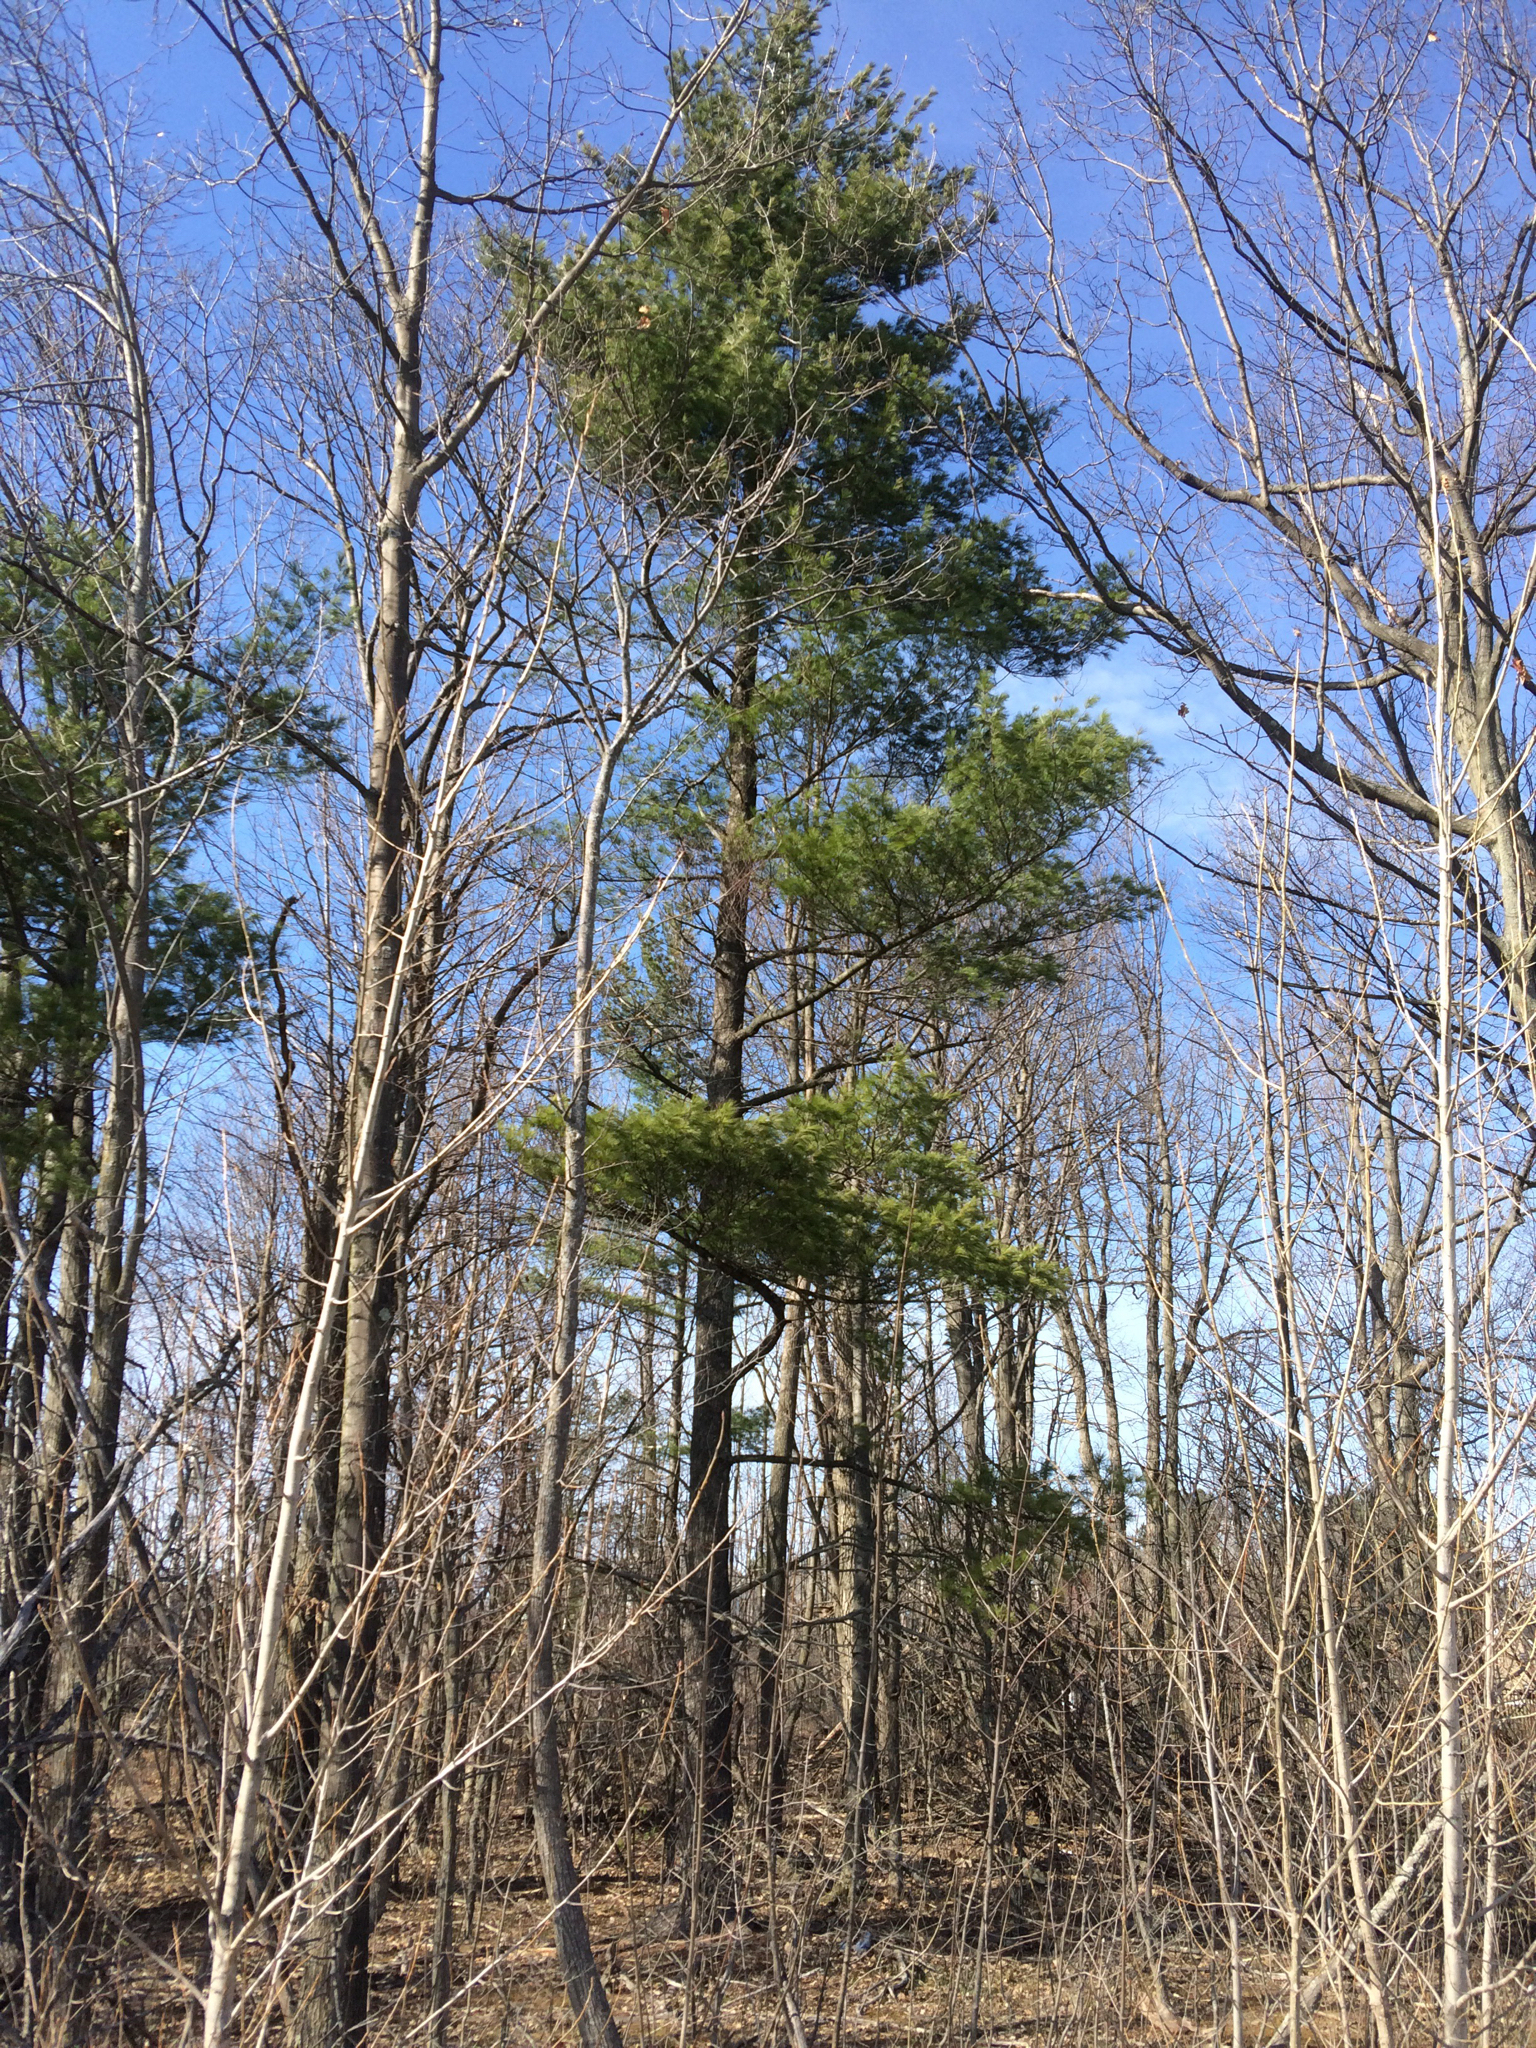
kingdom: Plantae
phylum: Tracheophyta
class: Pinopsida
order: Pinales
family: Pinaceae
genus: Pinus
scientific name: Pinus strobus
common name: Weymouth pine
